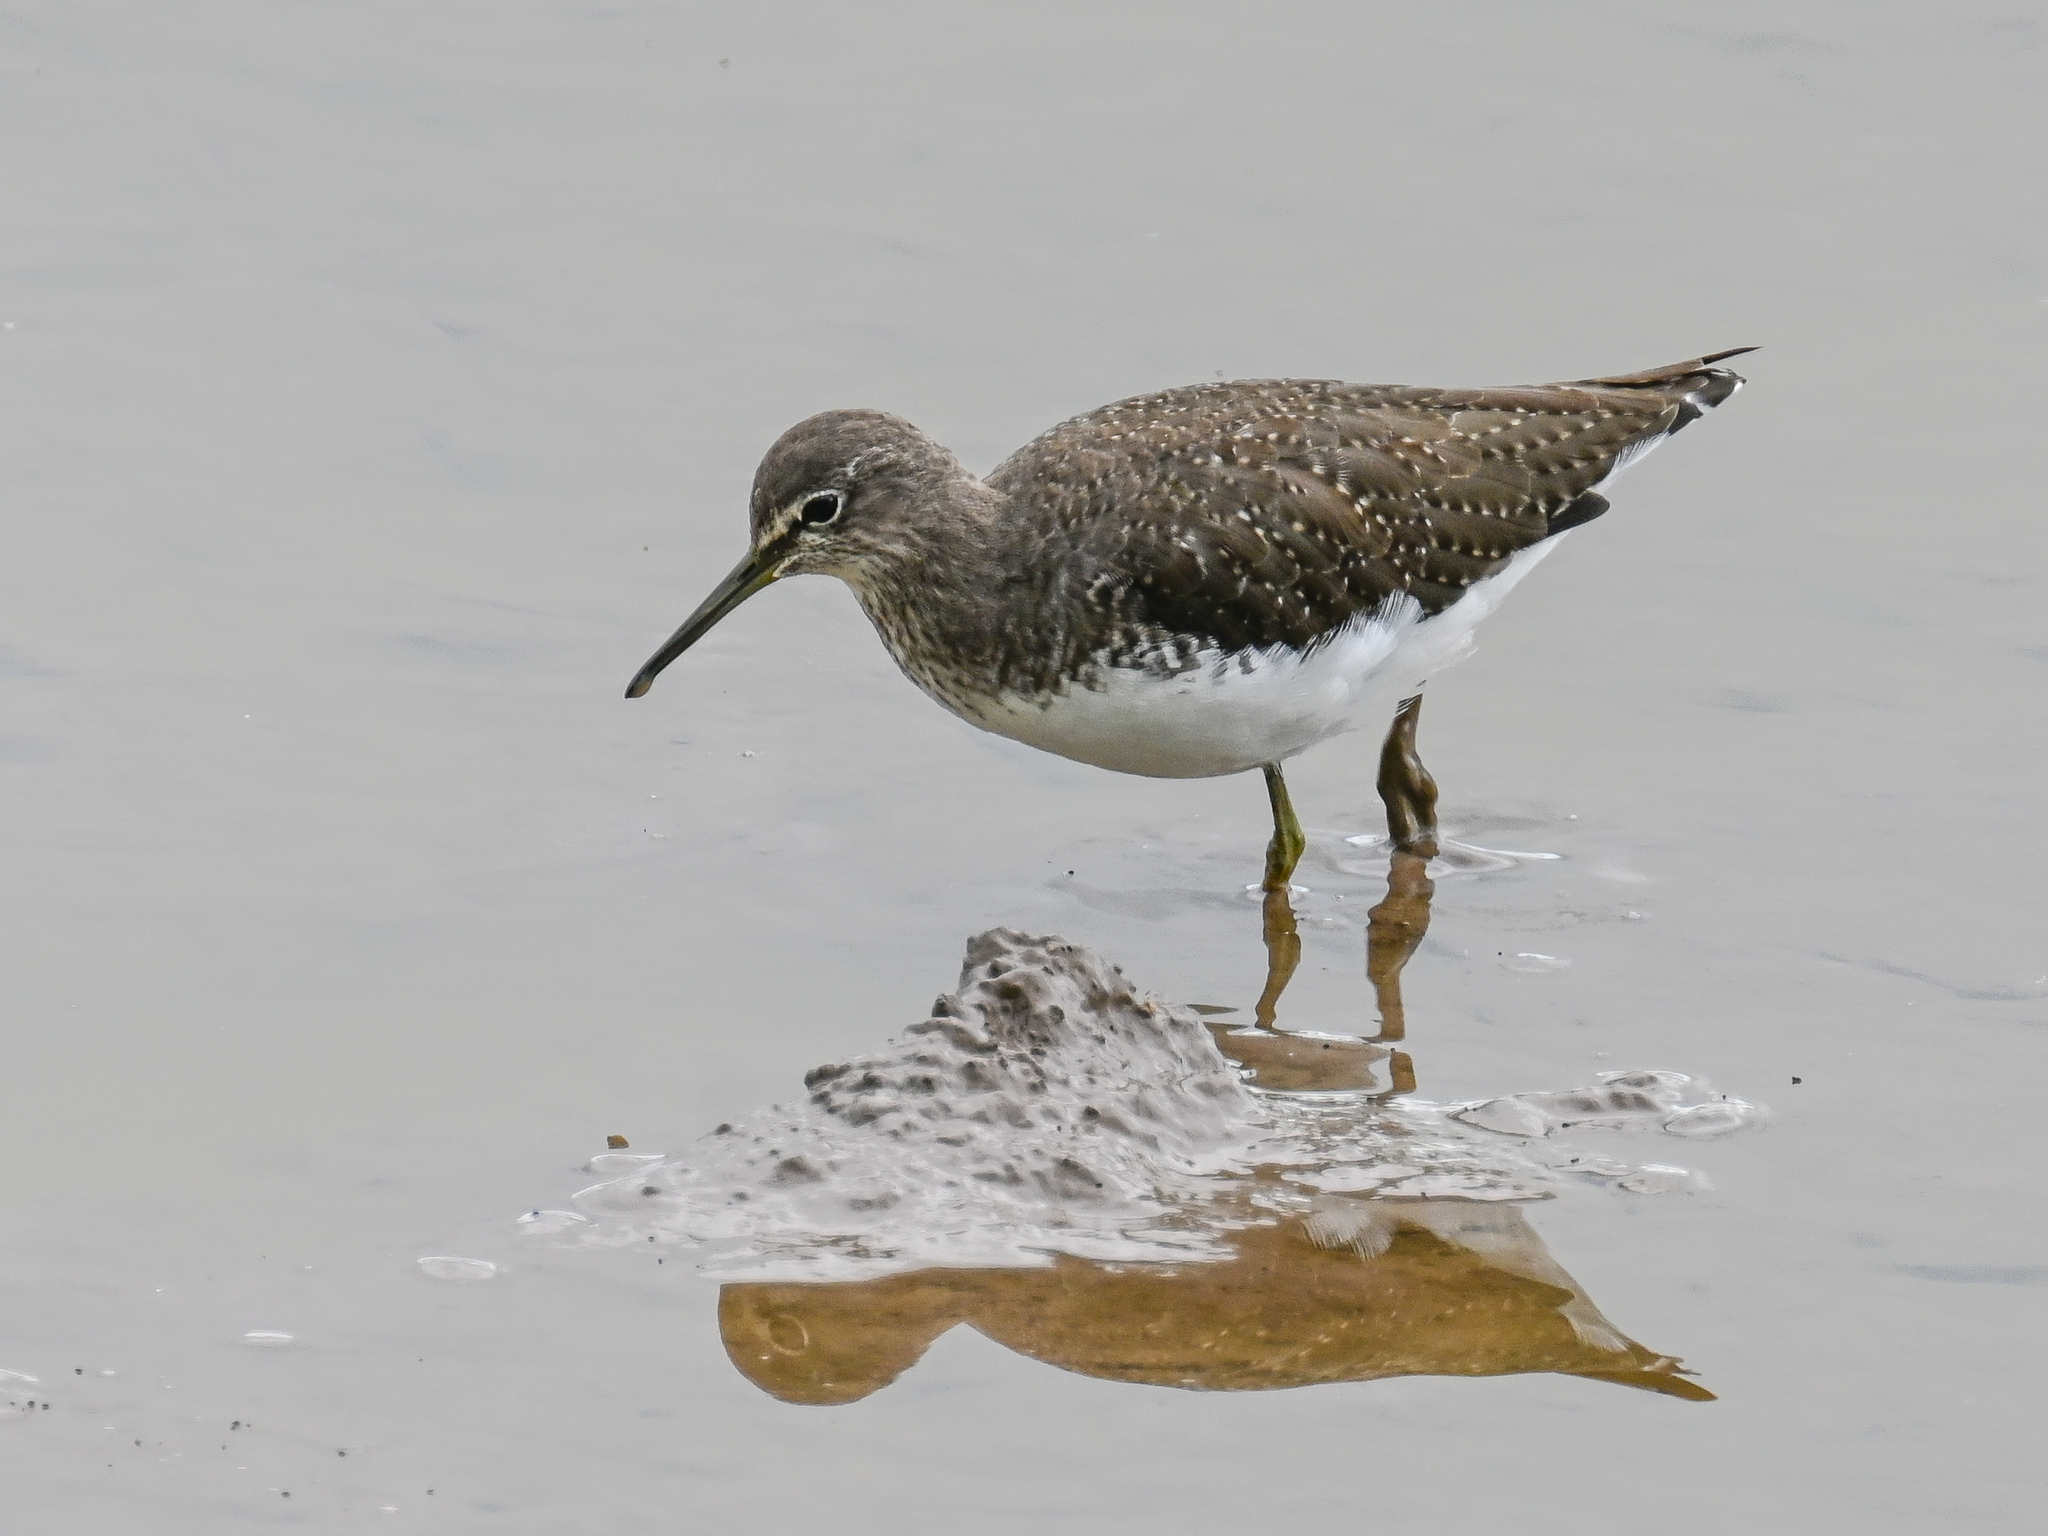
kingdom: Animalia
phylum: Chordata
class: Aves
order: Charadriiformes
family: Scolopacidae
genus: Tringa
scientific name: Tringa ochropus
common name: Green sandpiper
